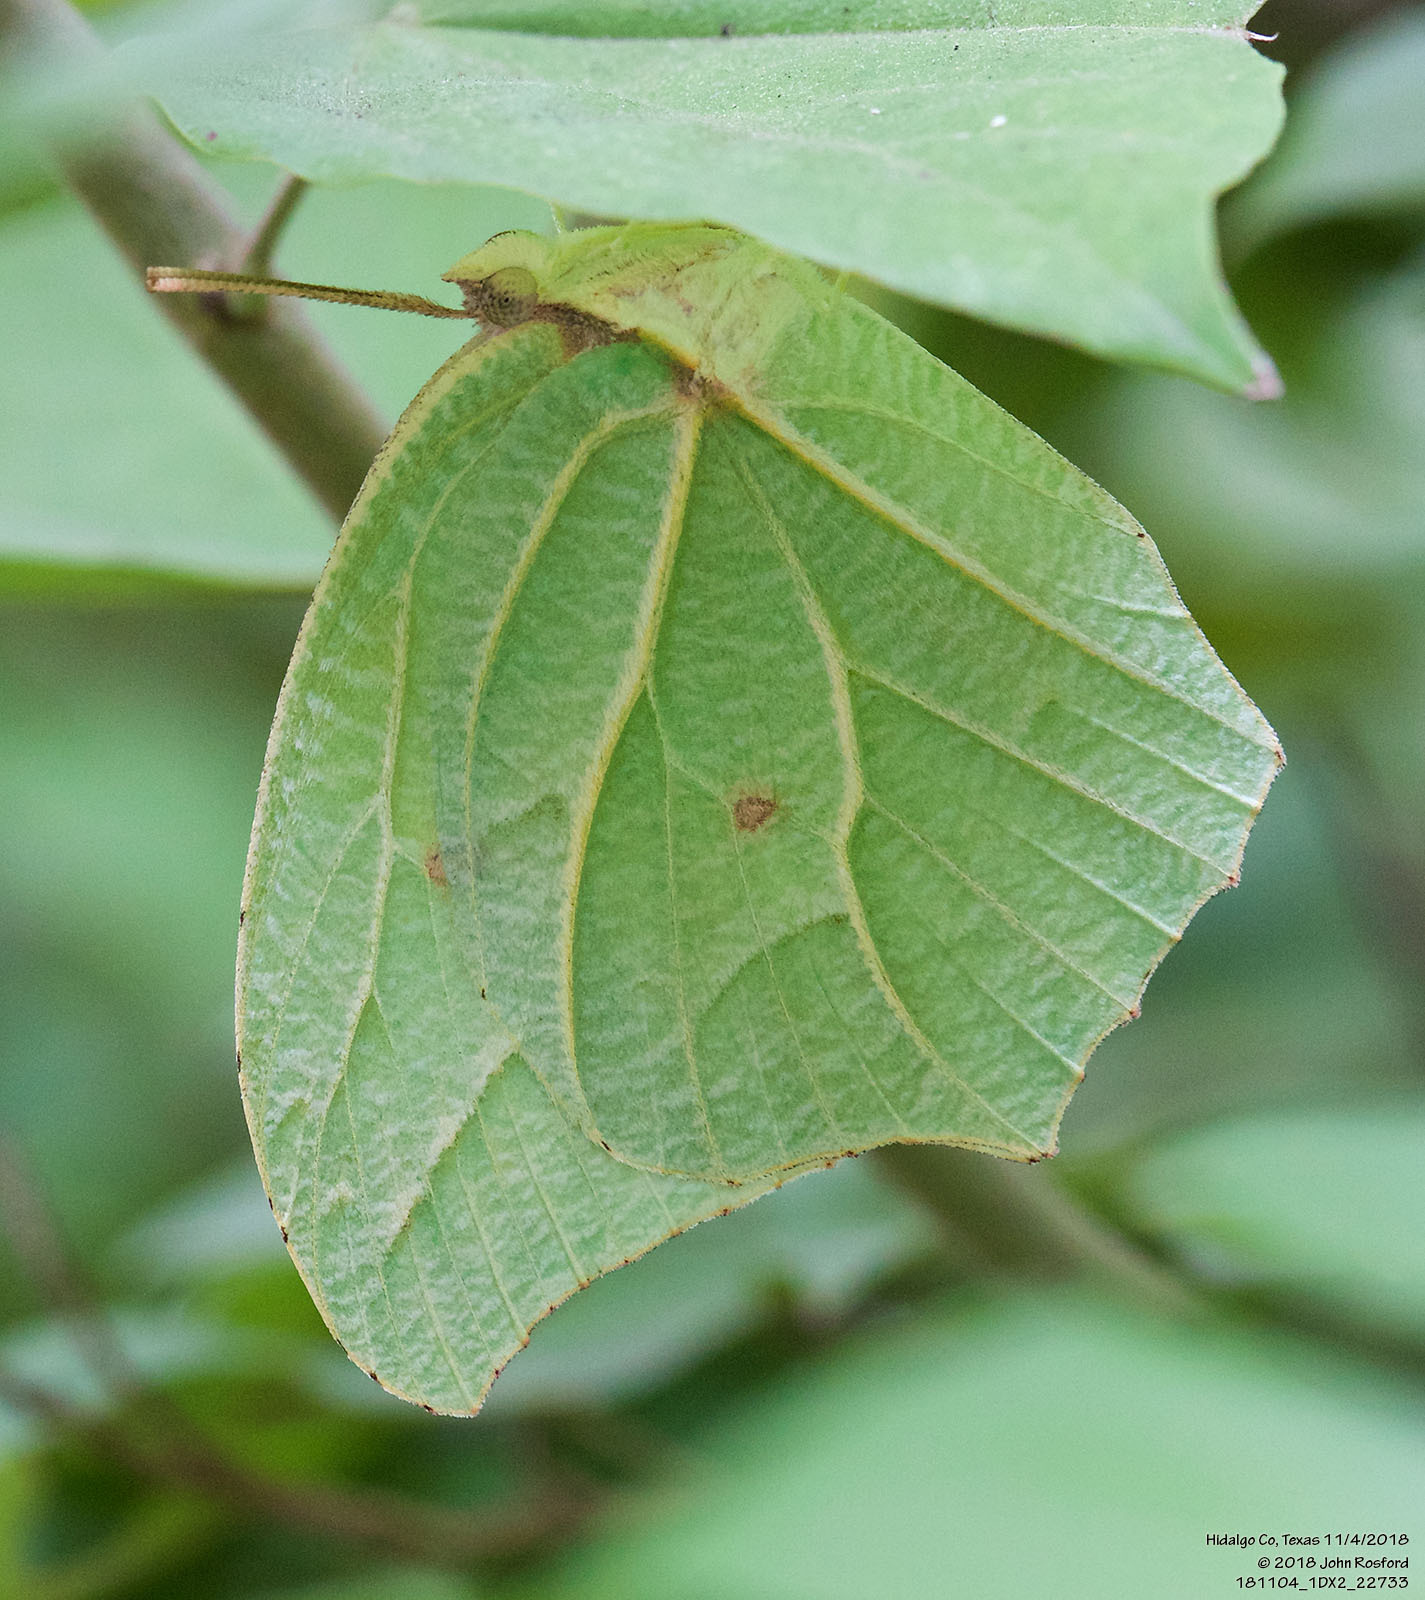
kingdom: Animalia
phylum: Arthropoda
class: Insecta
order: Lepidoptera
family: Pieridae
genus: Anteos
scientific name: Anteos clorinde
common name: White angled sulphur
